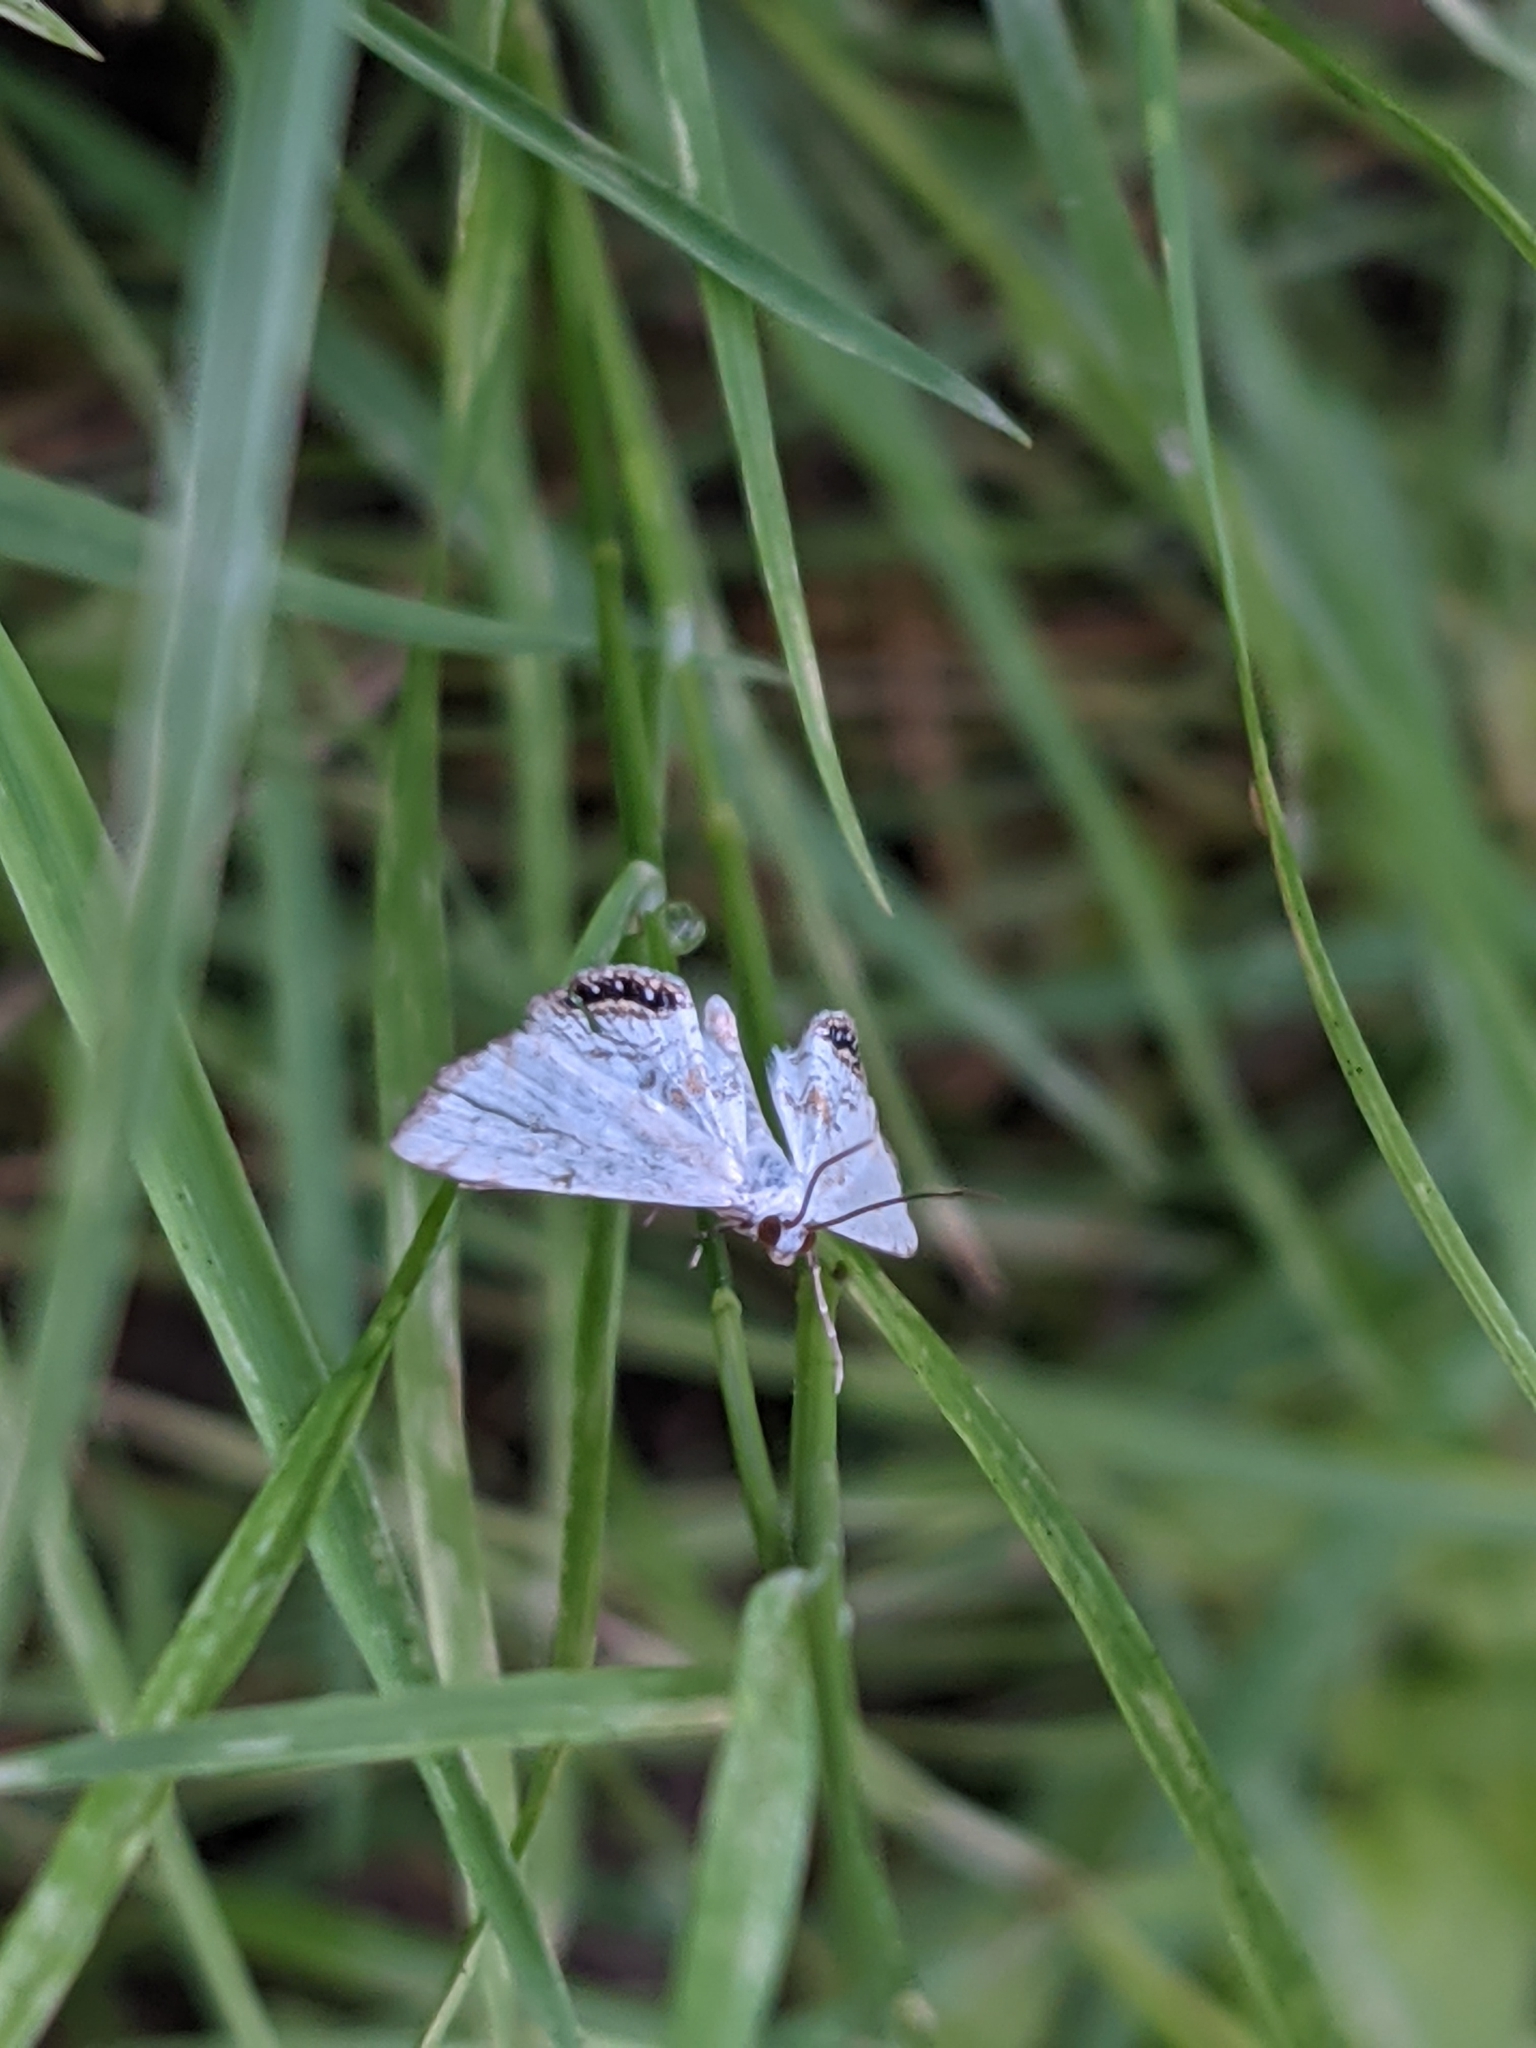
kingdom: Animalia
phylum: Arthropoda
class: Insecta
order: Lepidoptera
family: Crambidae
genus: Cataclysta
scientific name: Cataclysta lemnata
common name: Small china-mark
